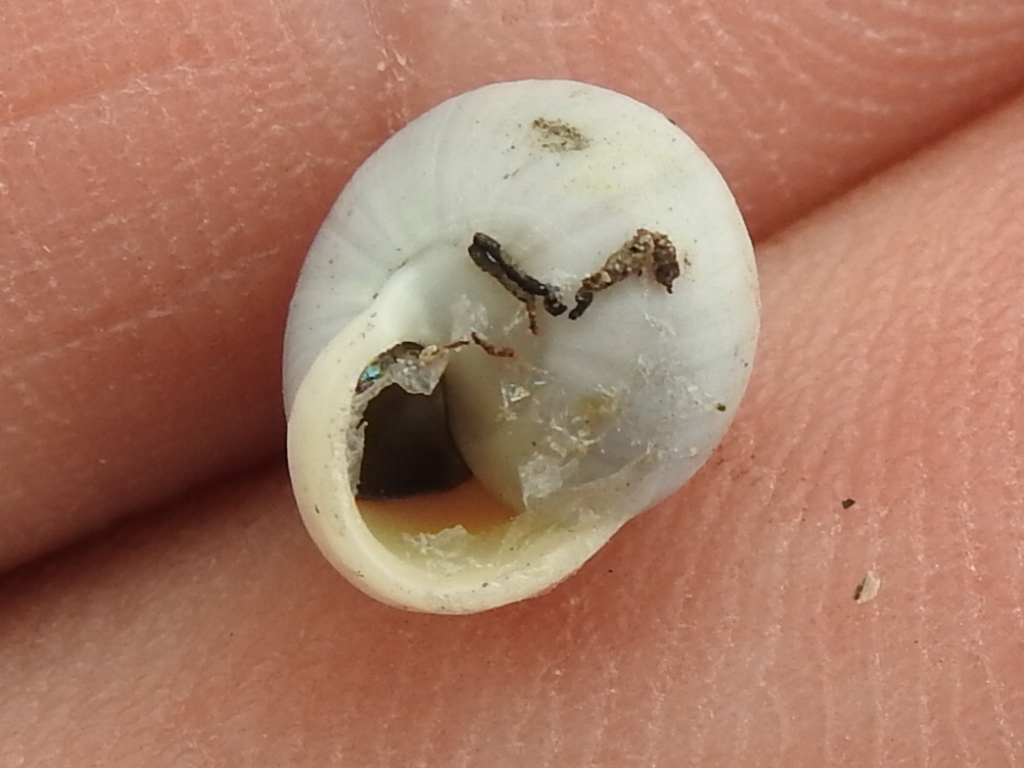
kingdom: Animalia
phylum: Mollusca
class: Gastropoda
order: Cycloneritida
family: Helicinidae
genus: Helicina
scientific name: Helicina orbiculata
